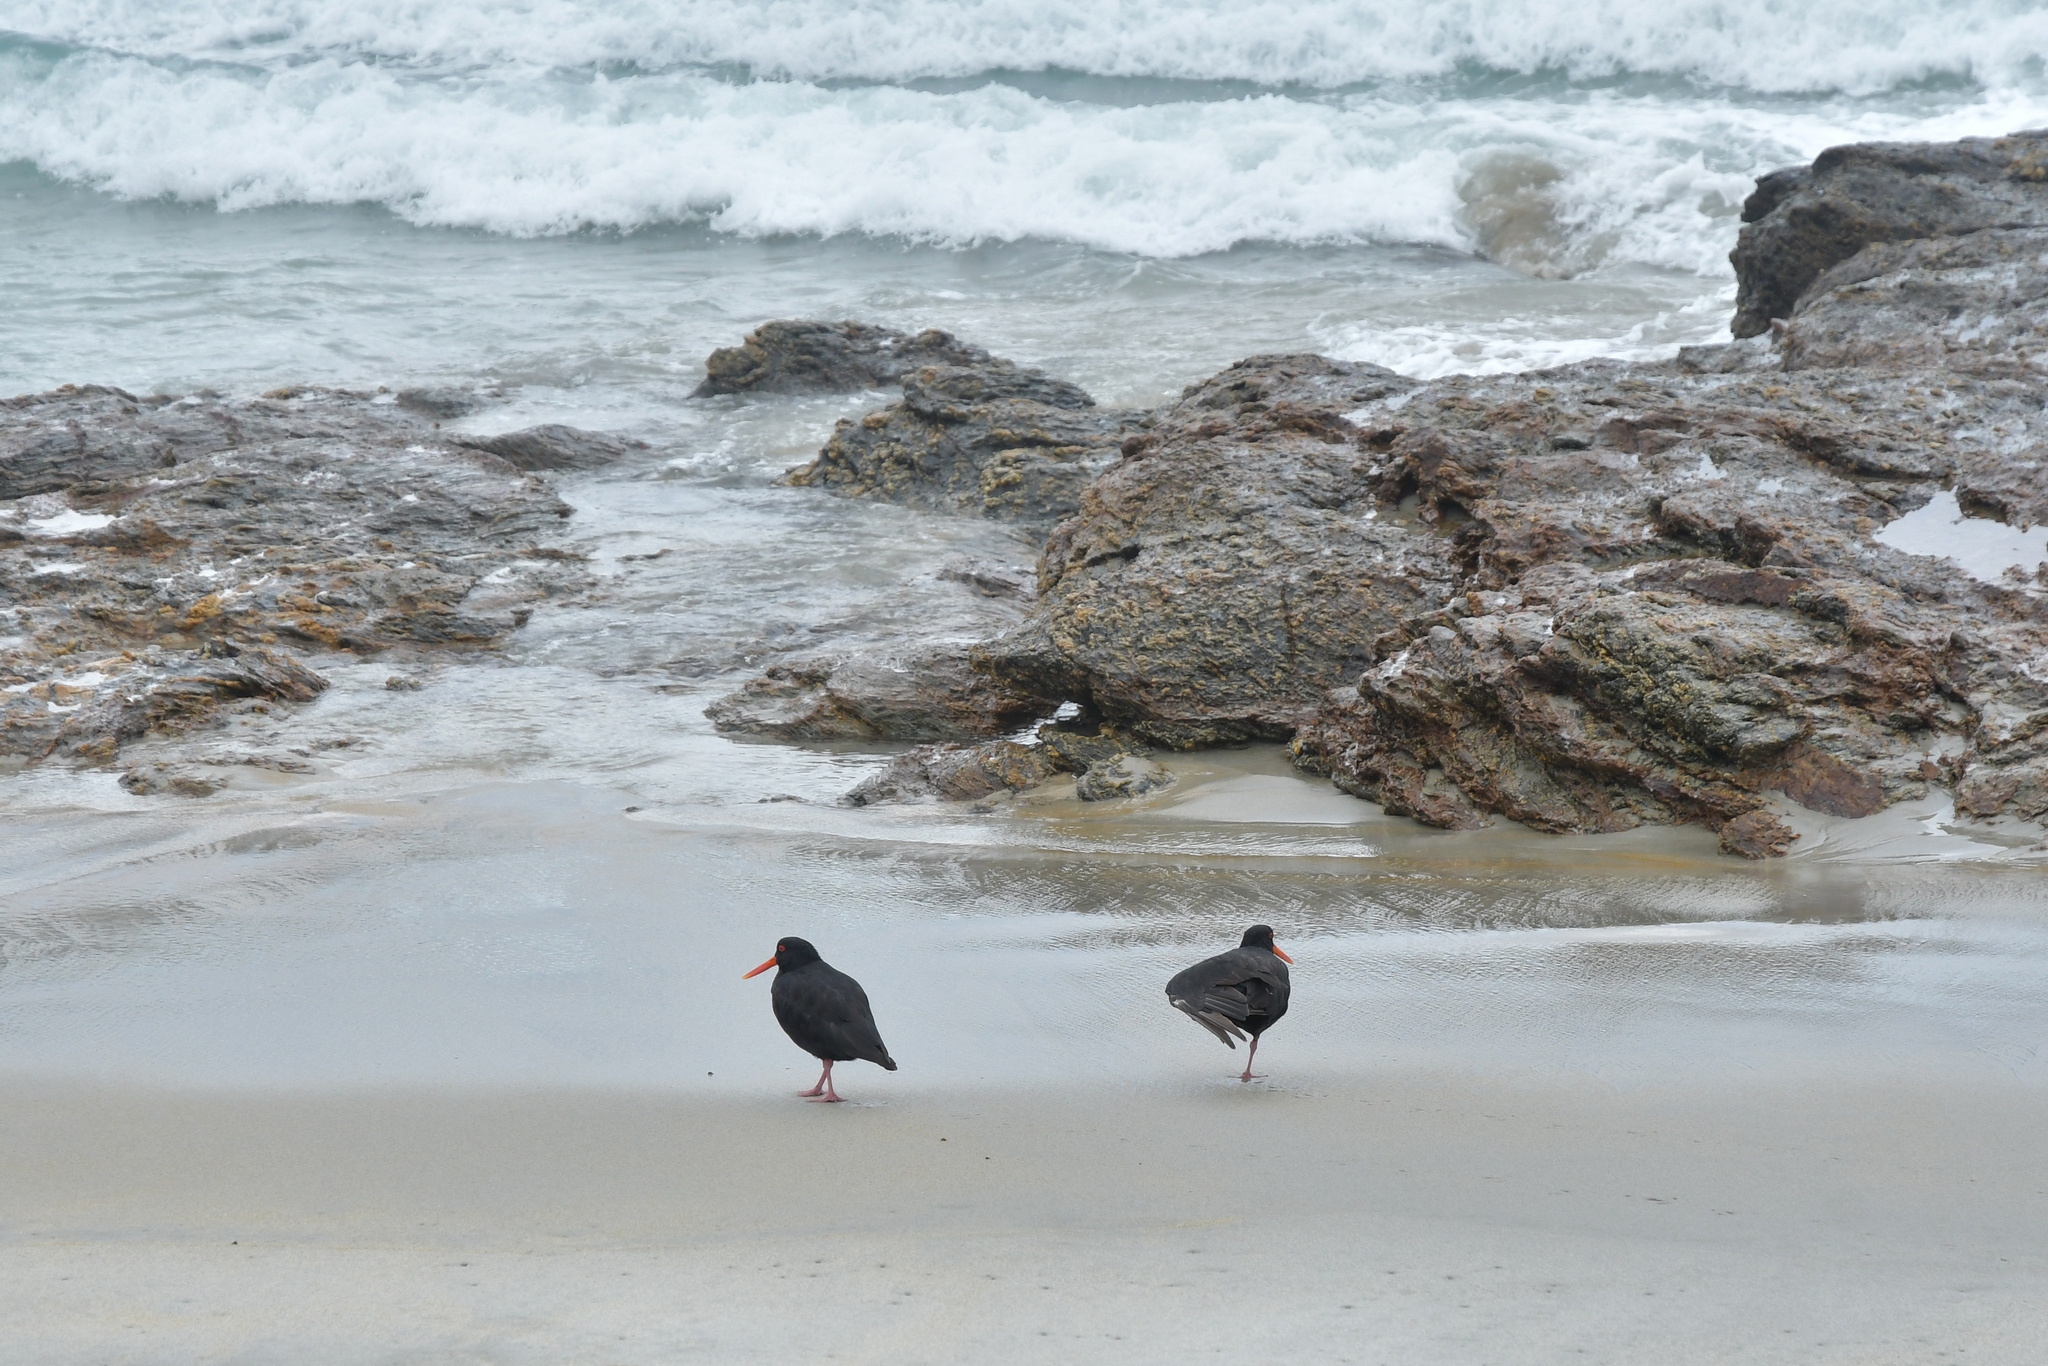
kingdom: Animalia
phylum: Chordata
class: Aves
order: Charadriiformes
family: Haematopodidae
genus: Haematopus
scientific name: Haematopus unicolor
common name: Variable oystercatcher
